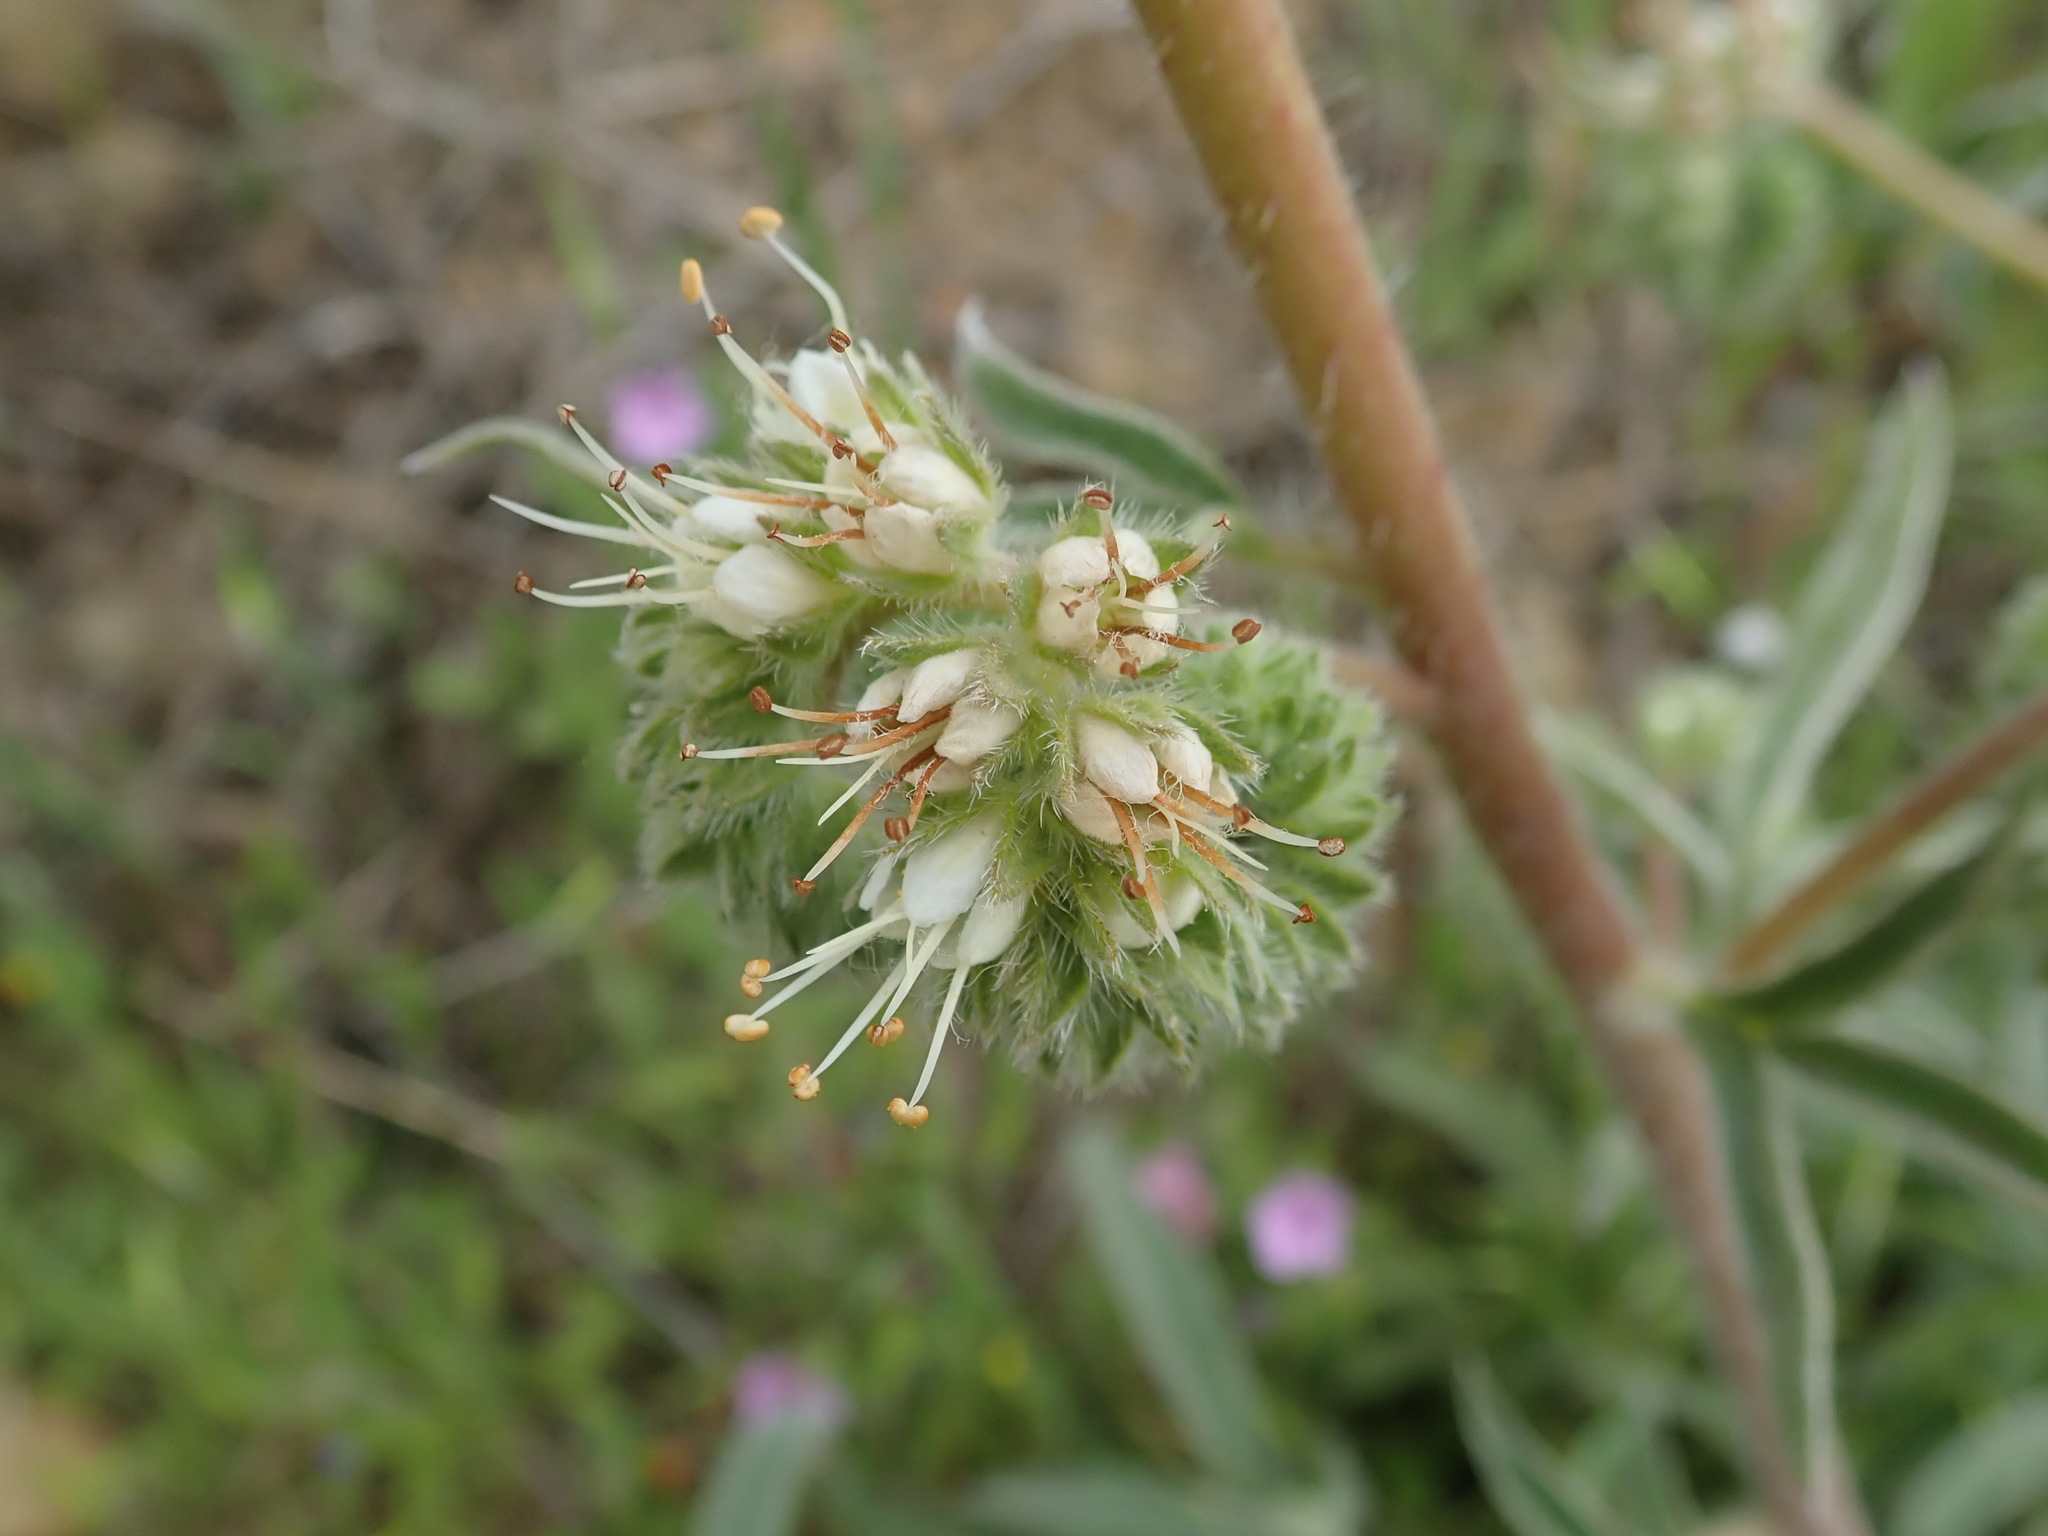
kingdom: Plantae
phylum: Tracheophyta
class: Magnoliopsida
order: Boraginales
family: Hydrophyllaceae
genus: Phacelia
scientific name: Phacelia imbricata
